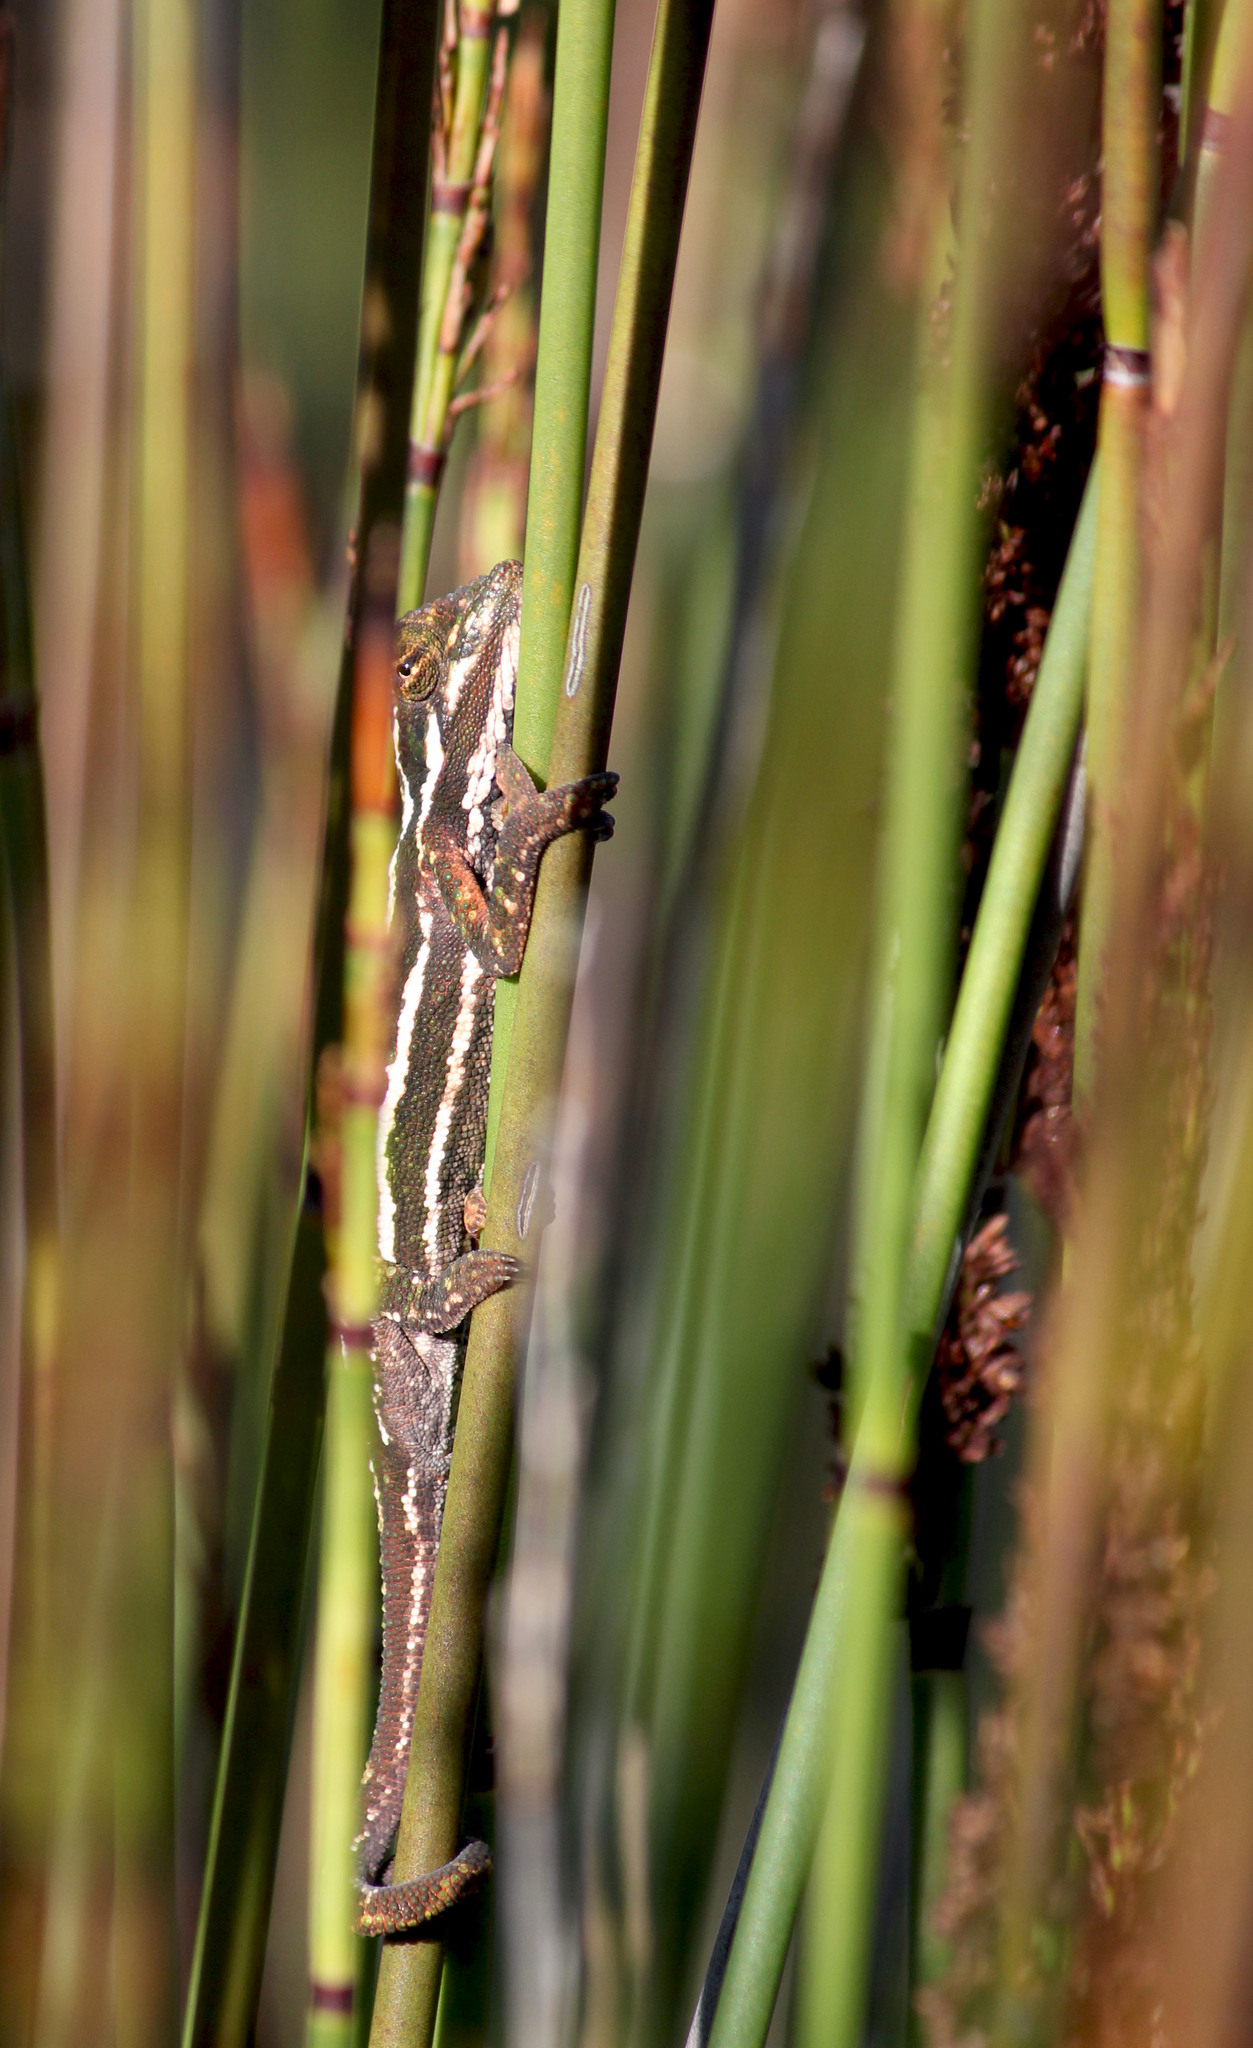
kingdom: Animalia
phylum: Chordata
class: Squamata
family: Chamaeleonidae
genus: Bradypodion
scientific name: Bradypodion pumilum
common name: Cape dwarf chameleon
